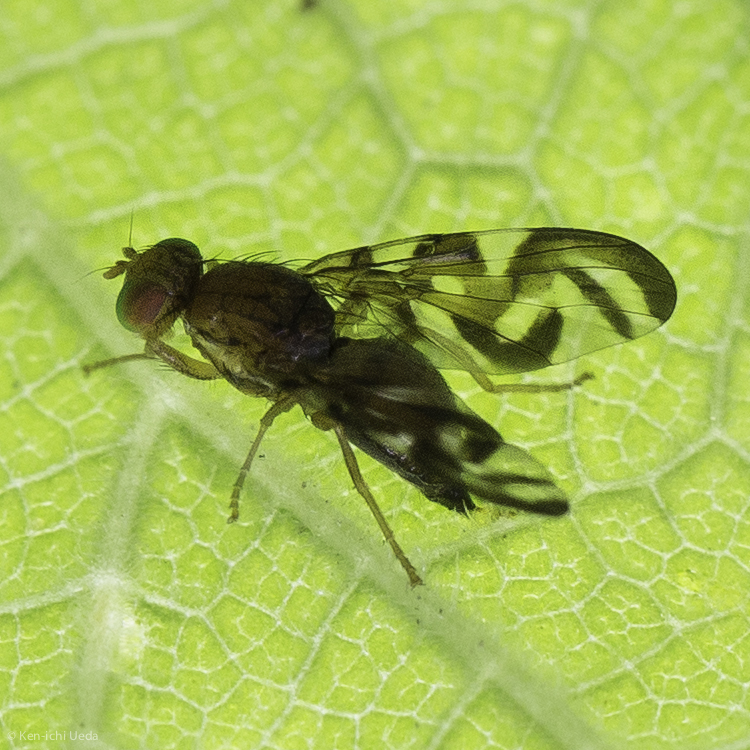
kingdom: Animalia
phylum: Arthropoda
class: Insecta
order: Diptera
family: Tephritidae
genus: Euleia
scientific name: Euleia fratria
